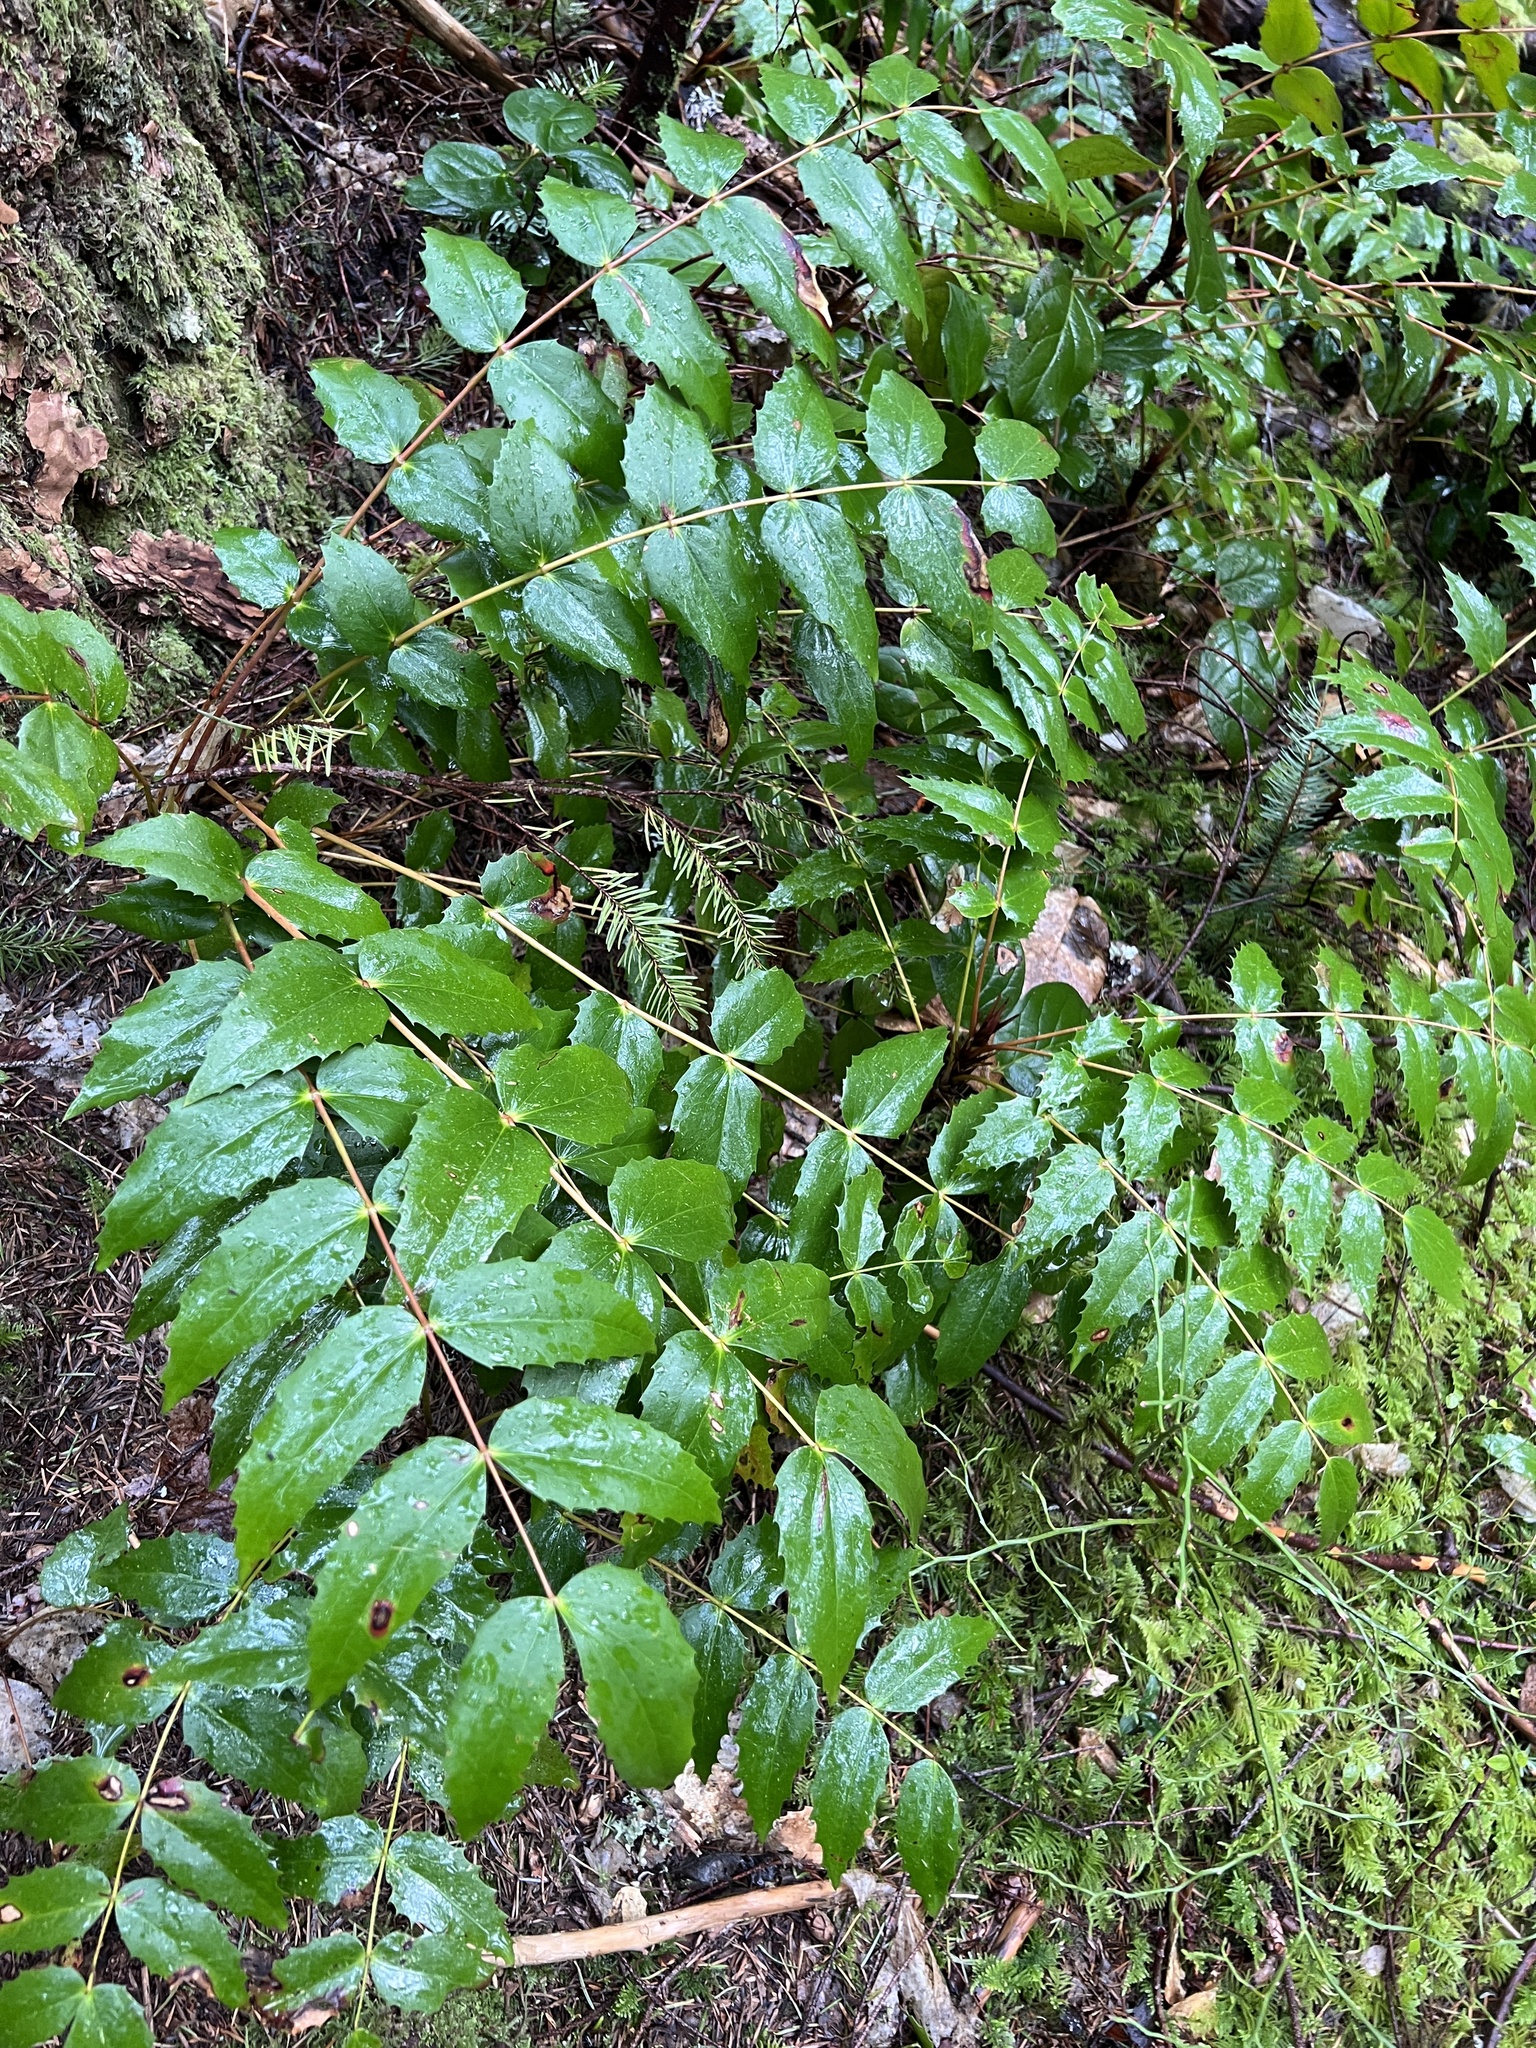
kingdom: Plantae
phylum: Tracheophyta
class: Magnoliopsida
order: Ranunculales
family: Berberidaceae
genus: Mahonia
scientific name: Mahonia nervosa
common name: Cascade oregon-grape
